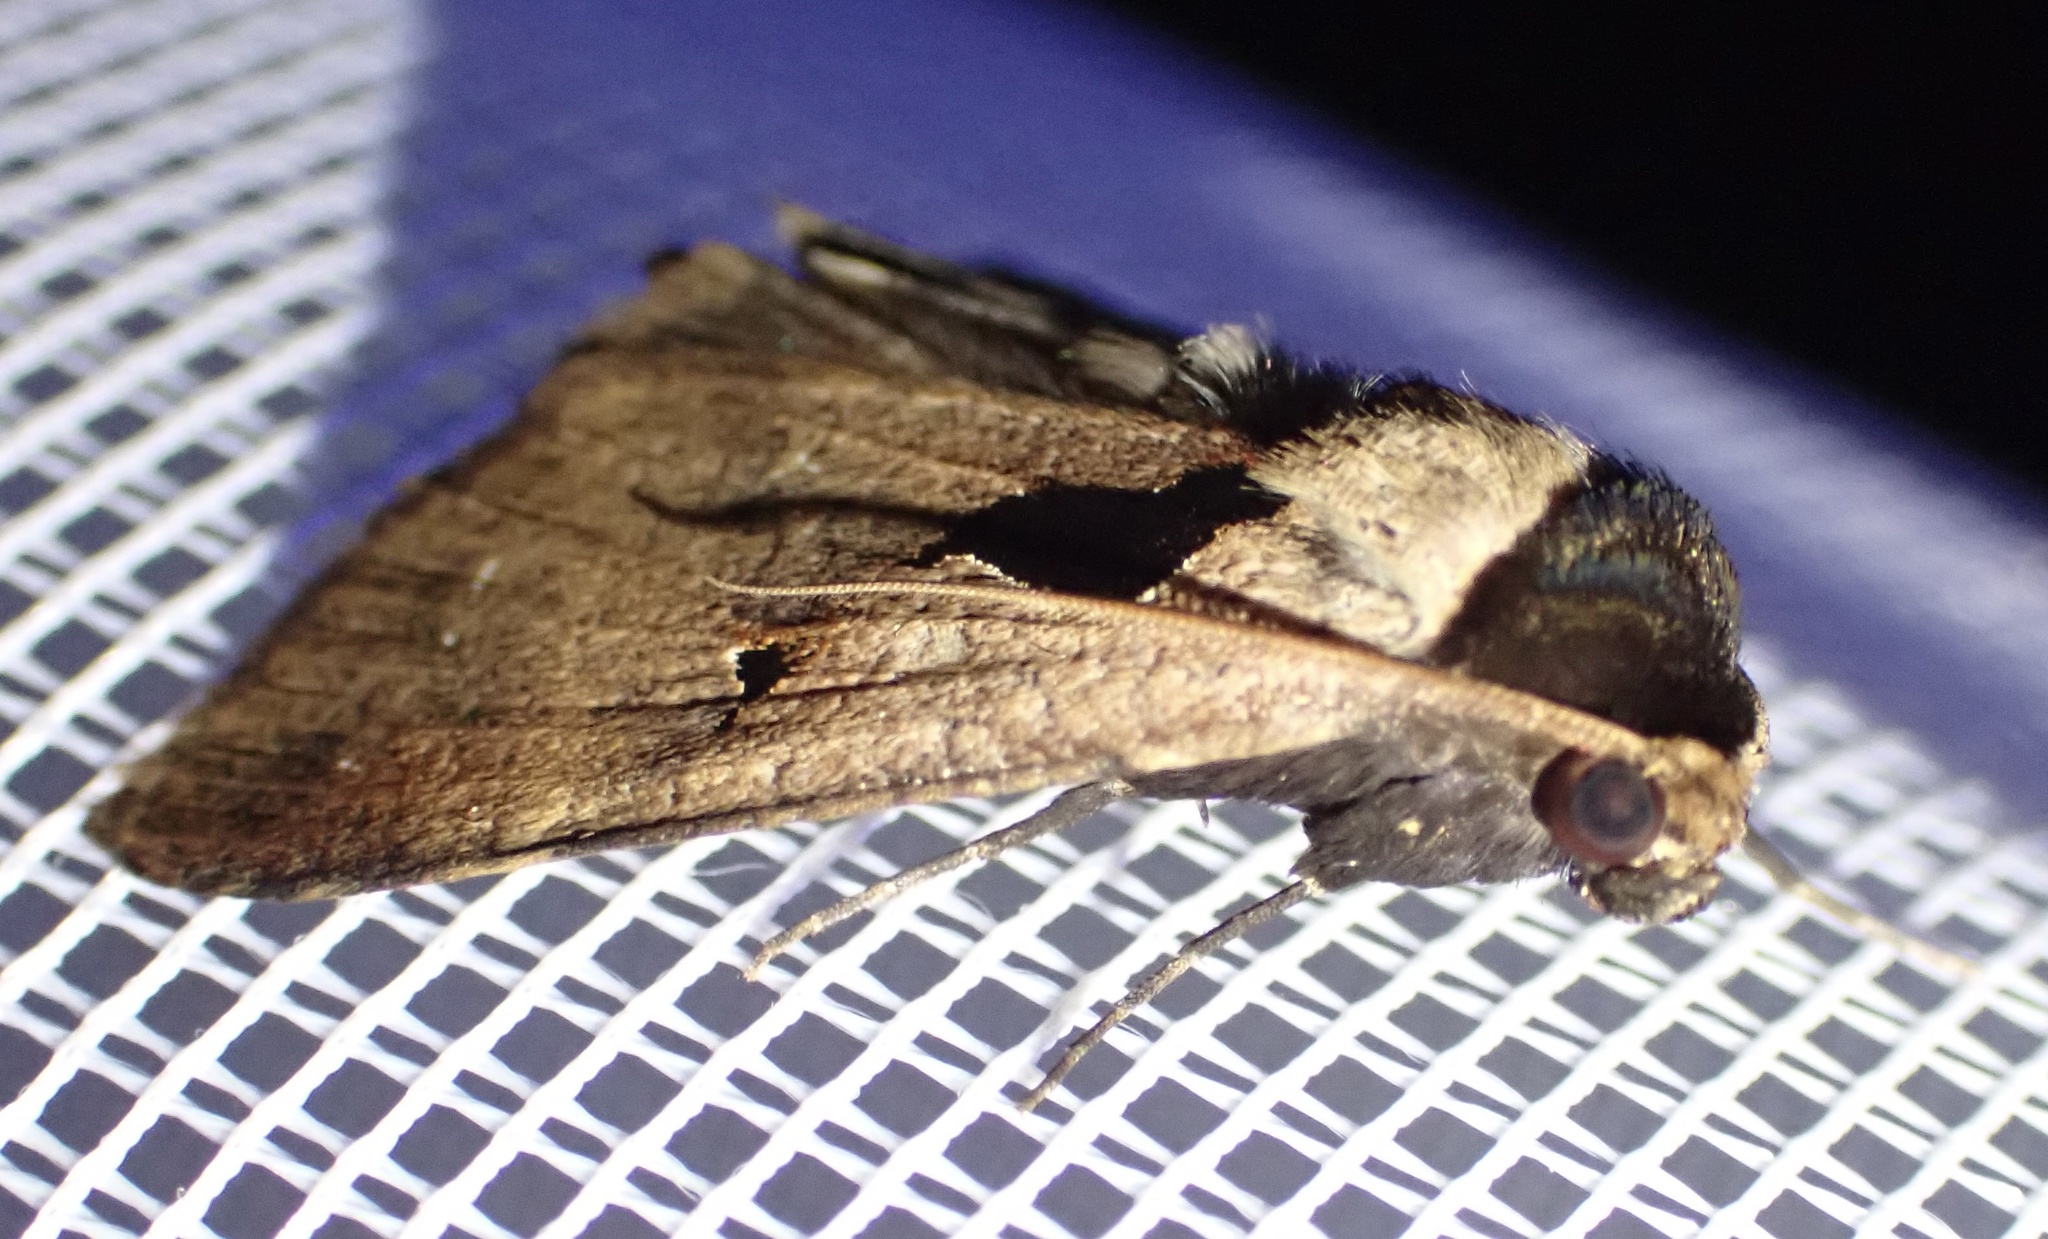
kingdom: Animalia
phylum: Arthropoda
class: Insecta
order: Lepidoptera
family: Erebidae
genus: Anoba
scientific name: Anoba atriplaga
